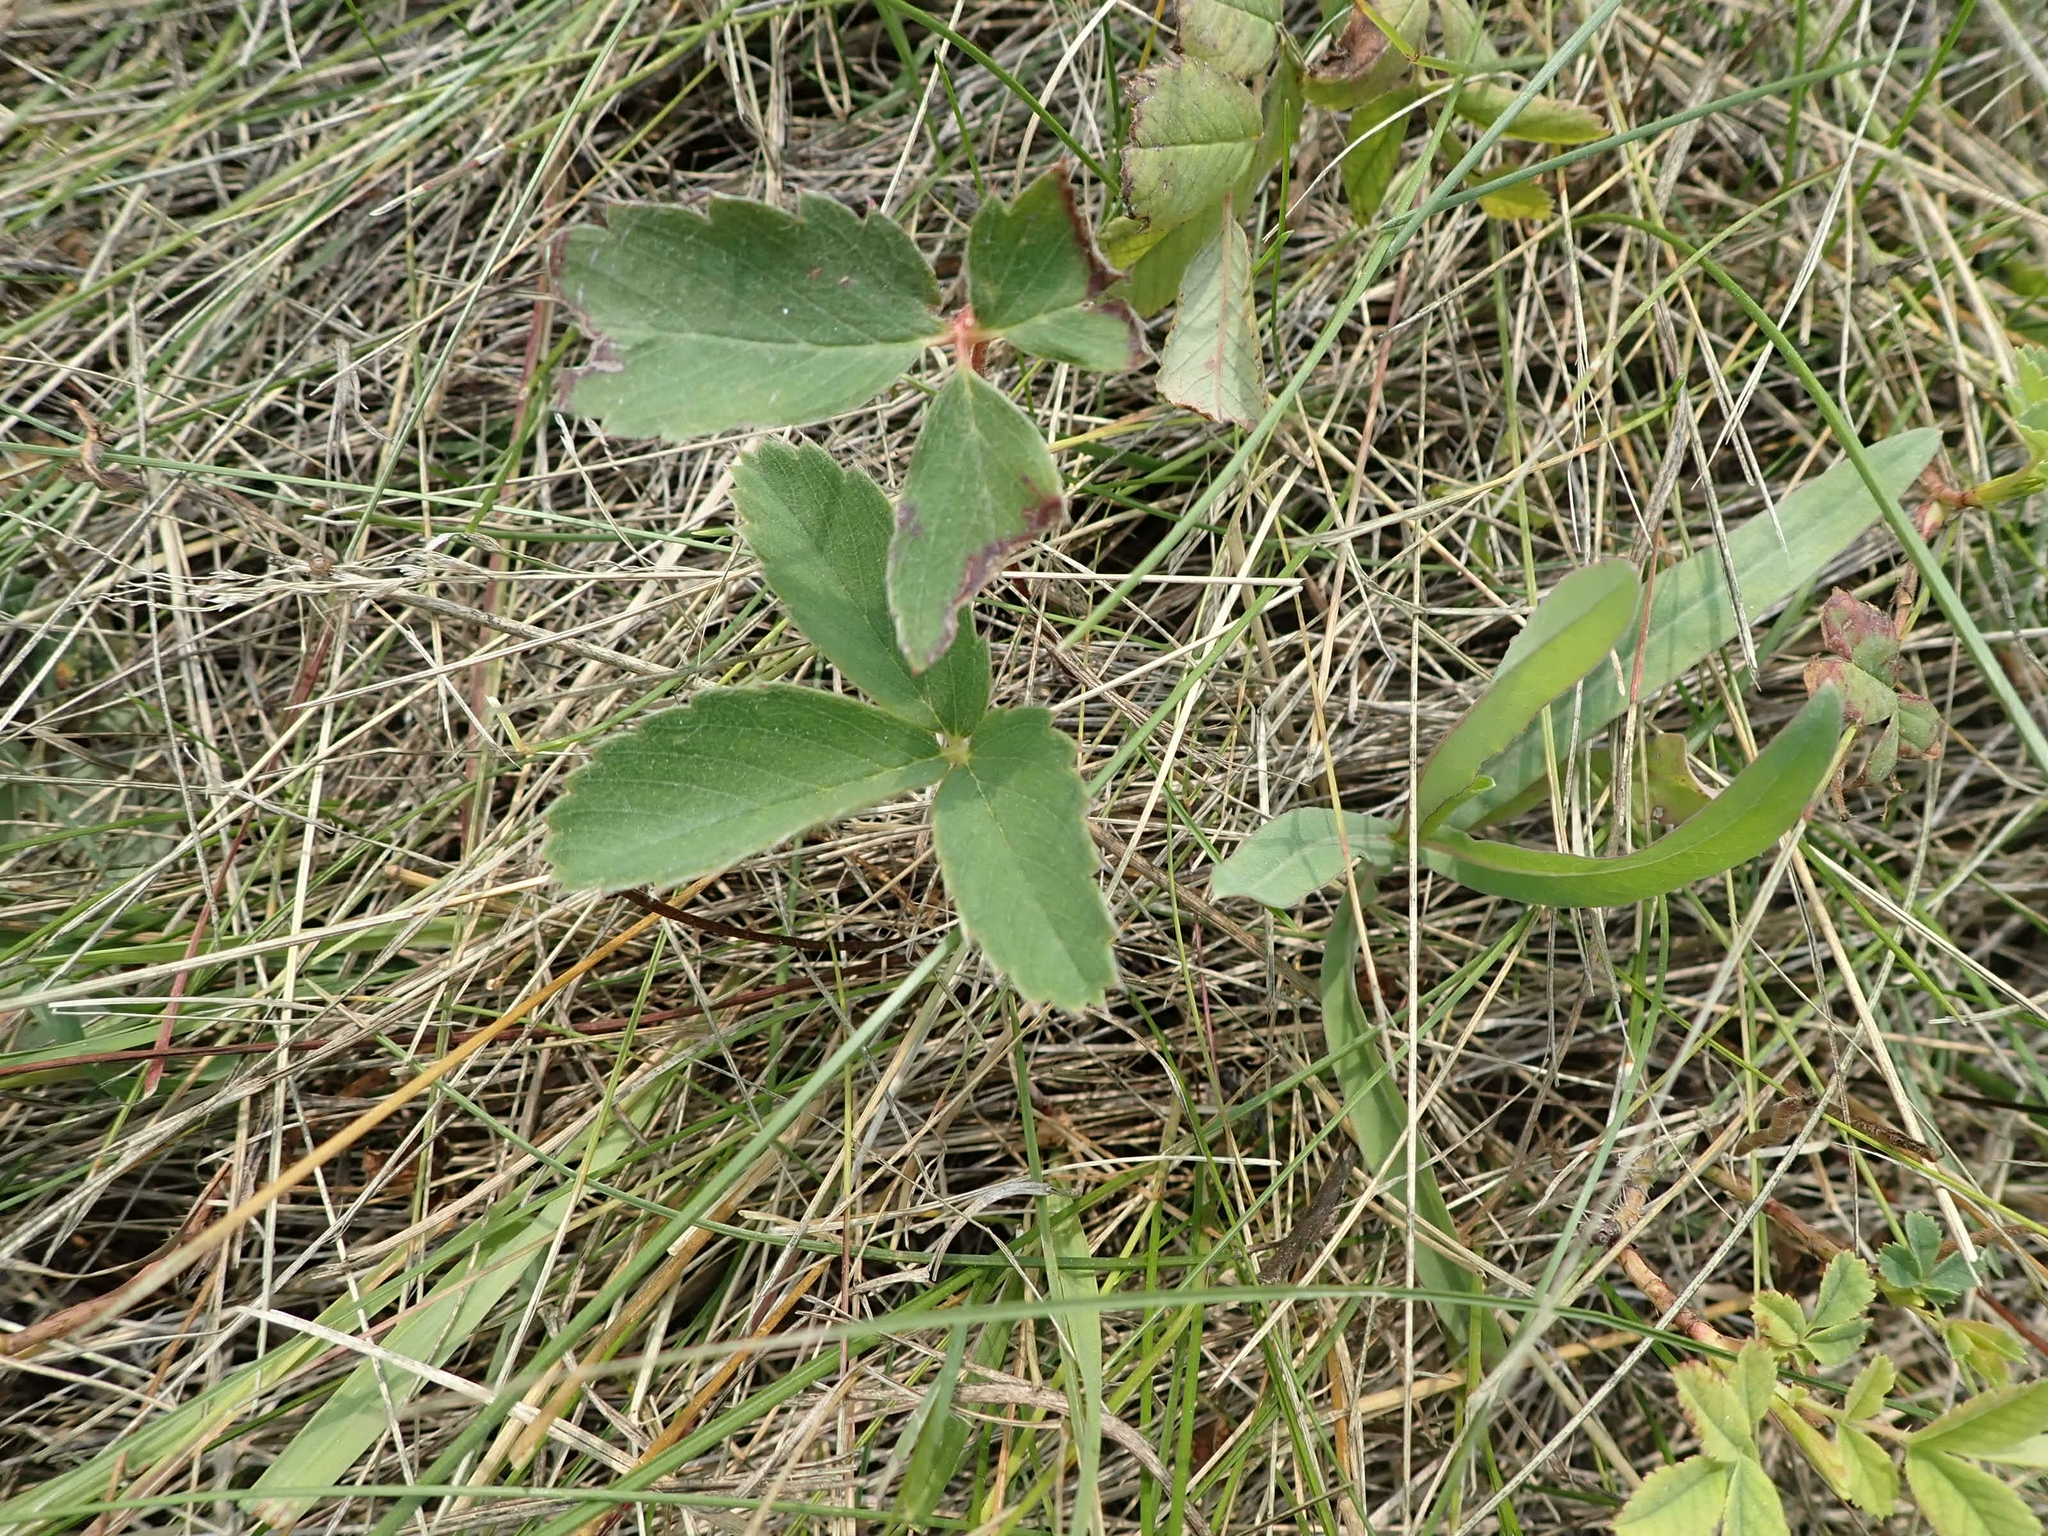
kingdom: Plantae
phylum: Tracheophyta
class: Magnoliopsida
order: Rosales
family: Rosaceae
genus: Fragaria
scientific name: Fragaria virginiana
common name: Thickleaved wild strawberry
